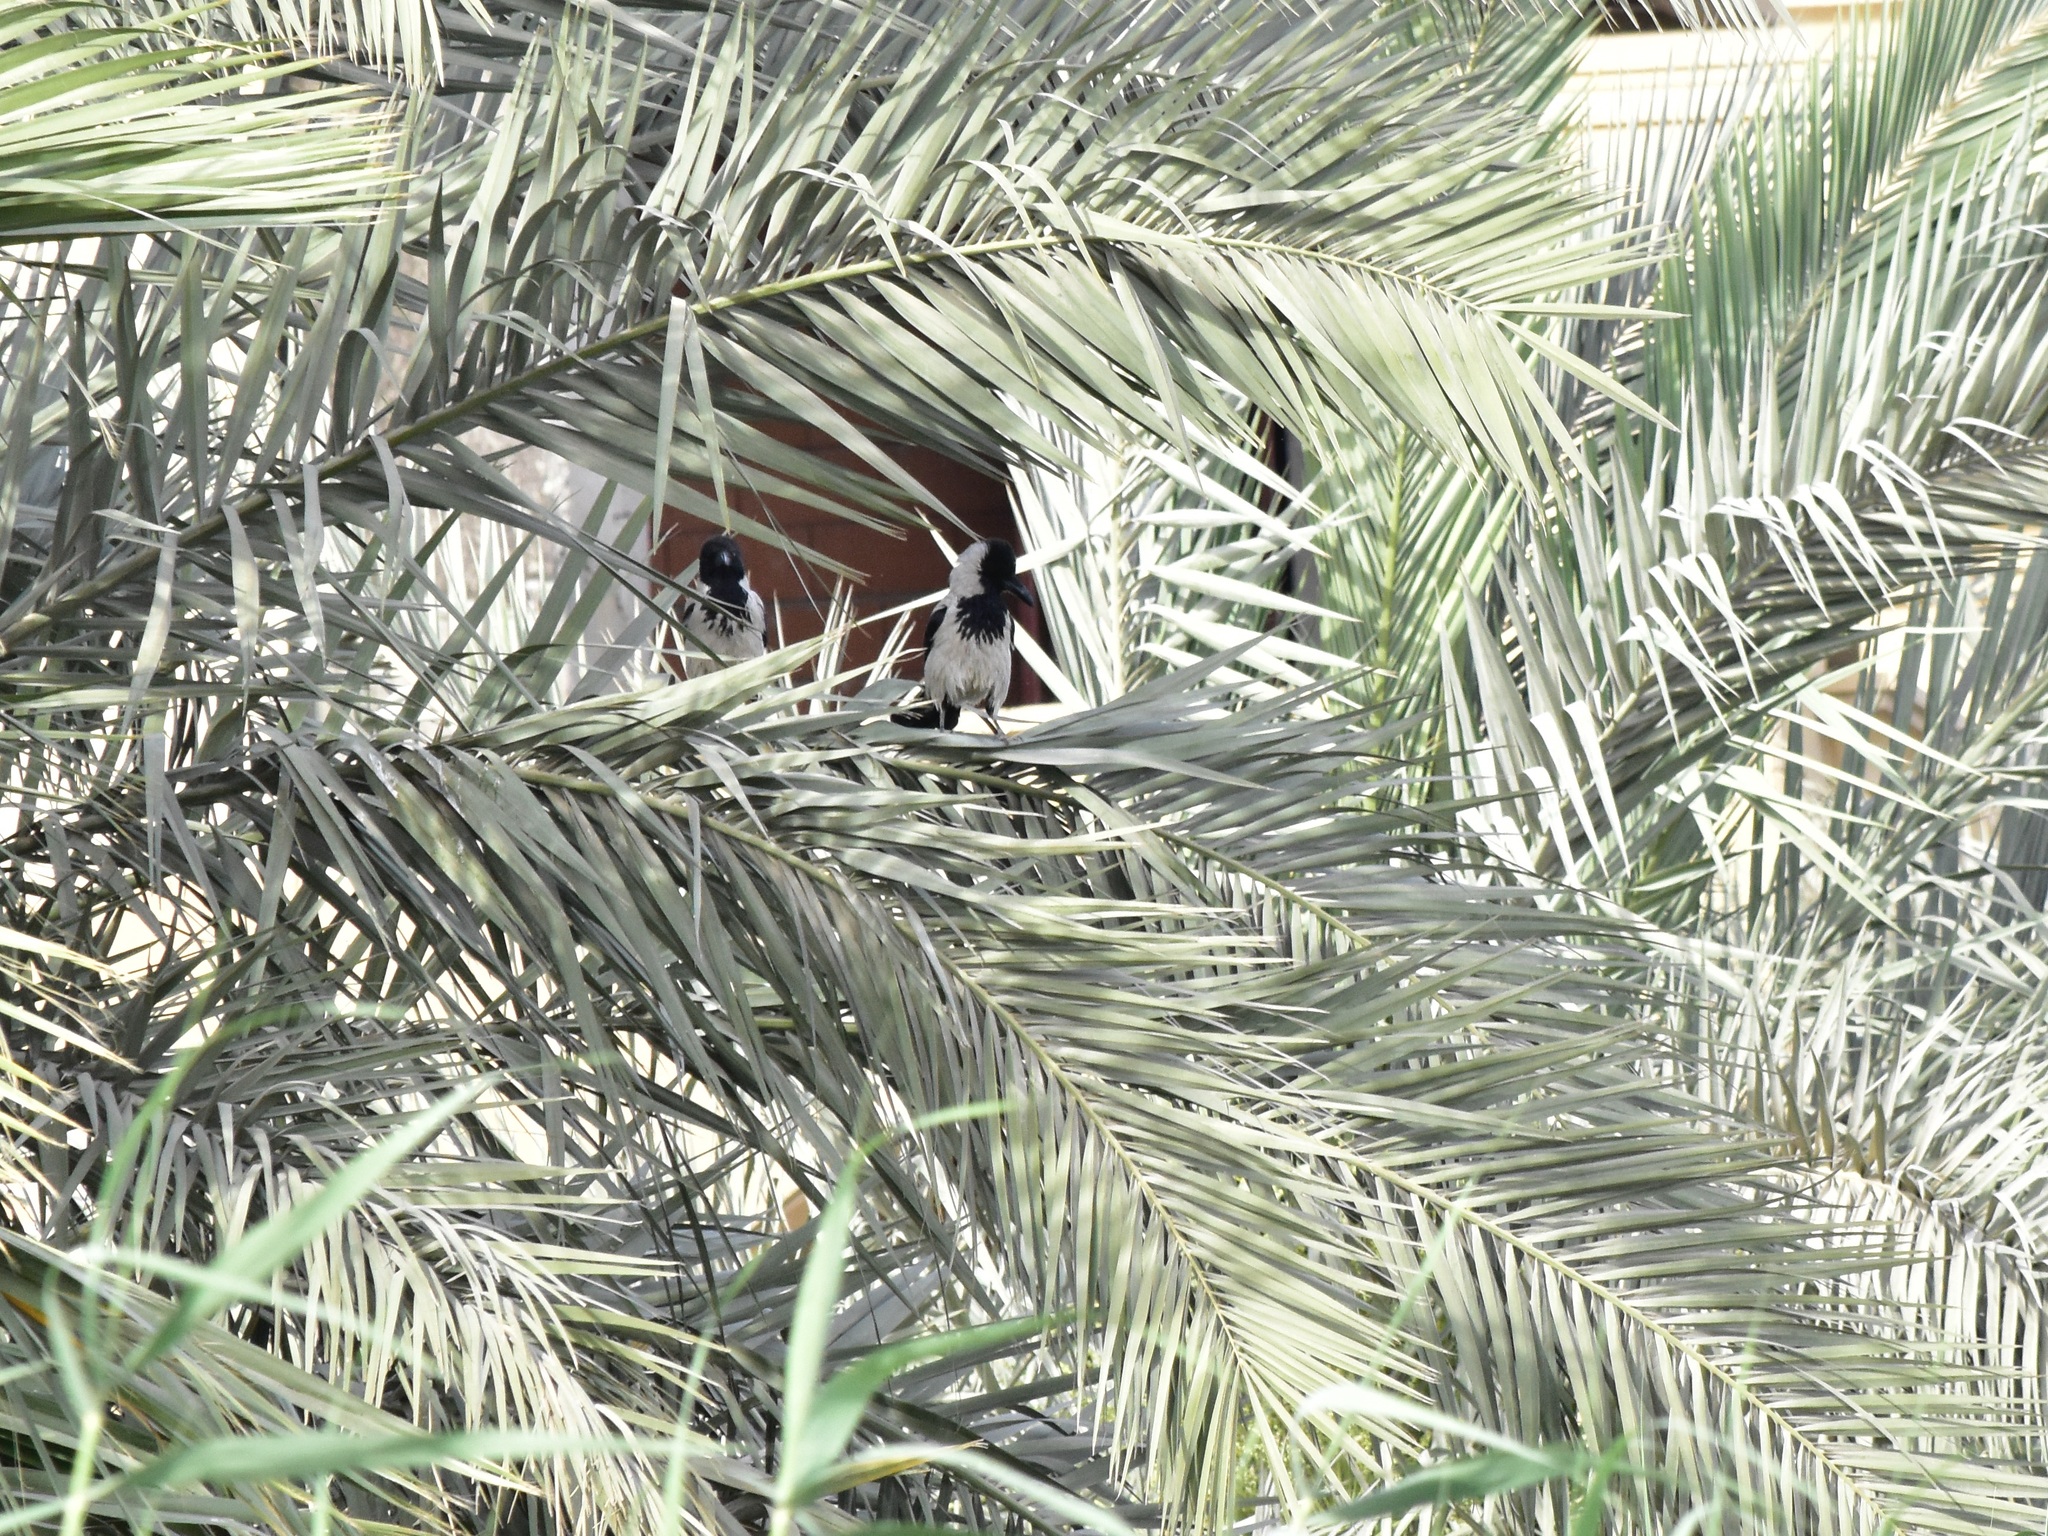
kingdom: Animalia
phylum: Chordata
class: Aves
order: Passeriformes
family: Corvidae
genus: Corvus
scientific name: Corvus cornix
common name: Hooded crow
